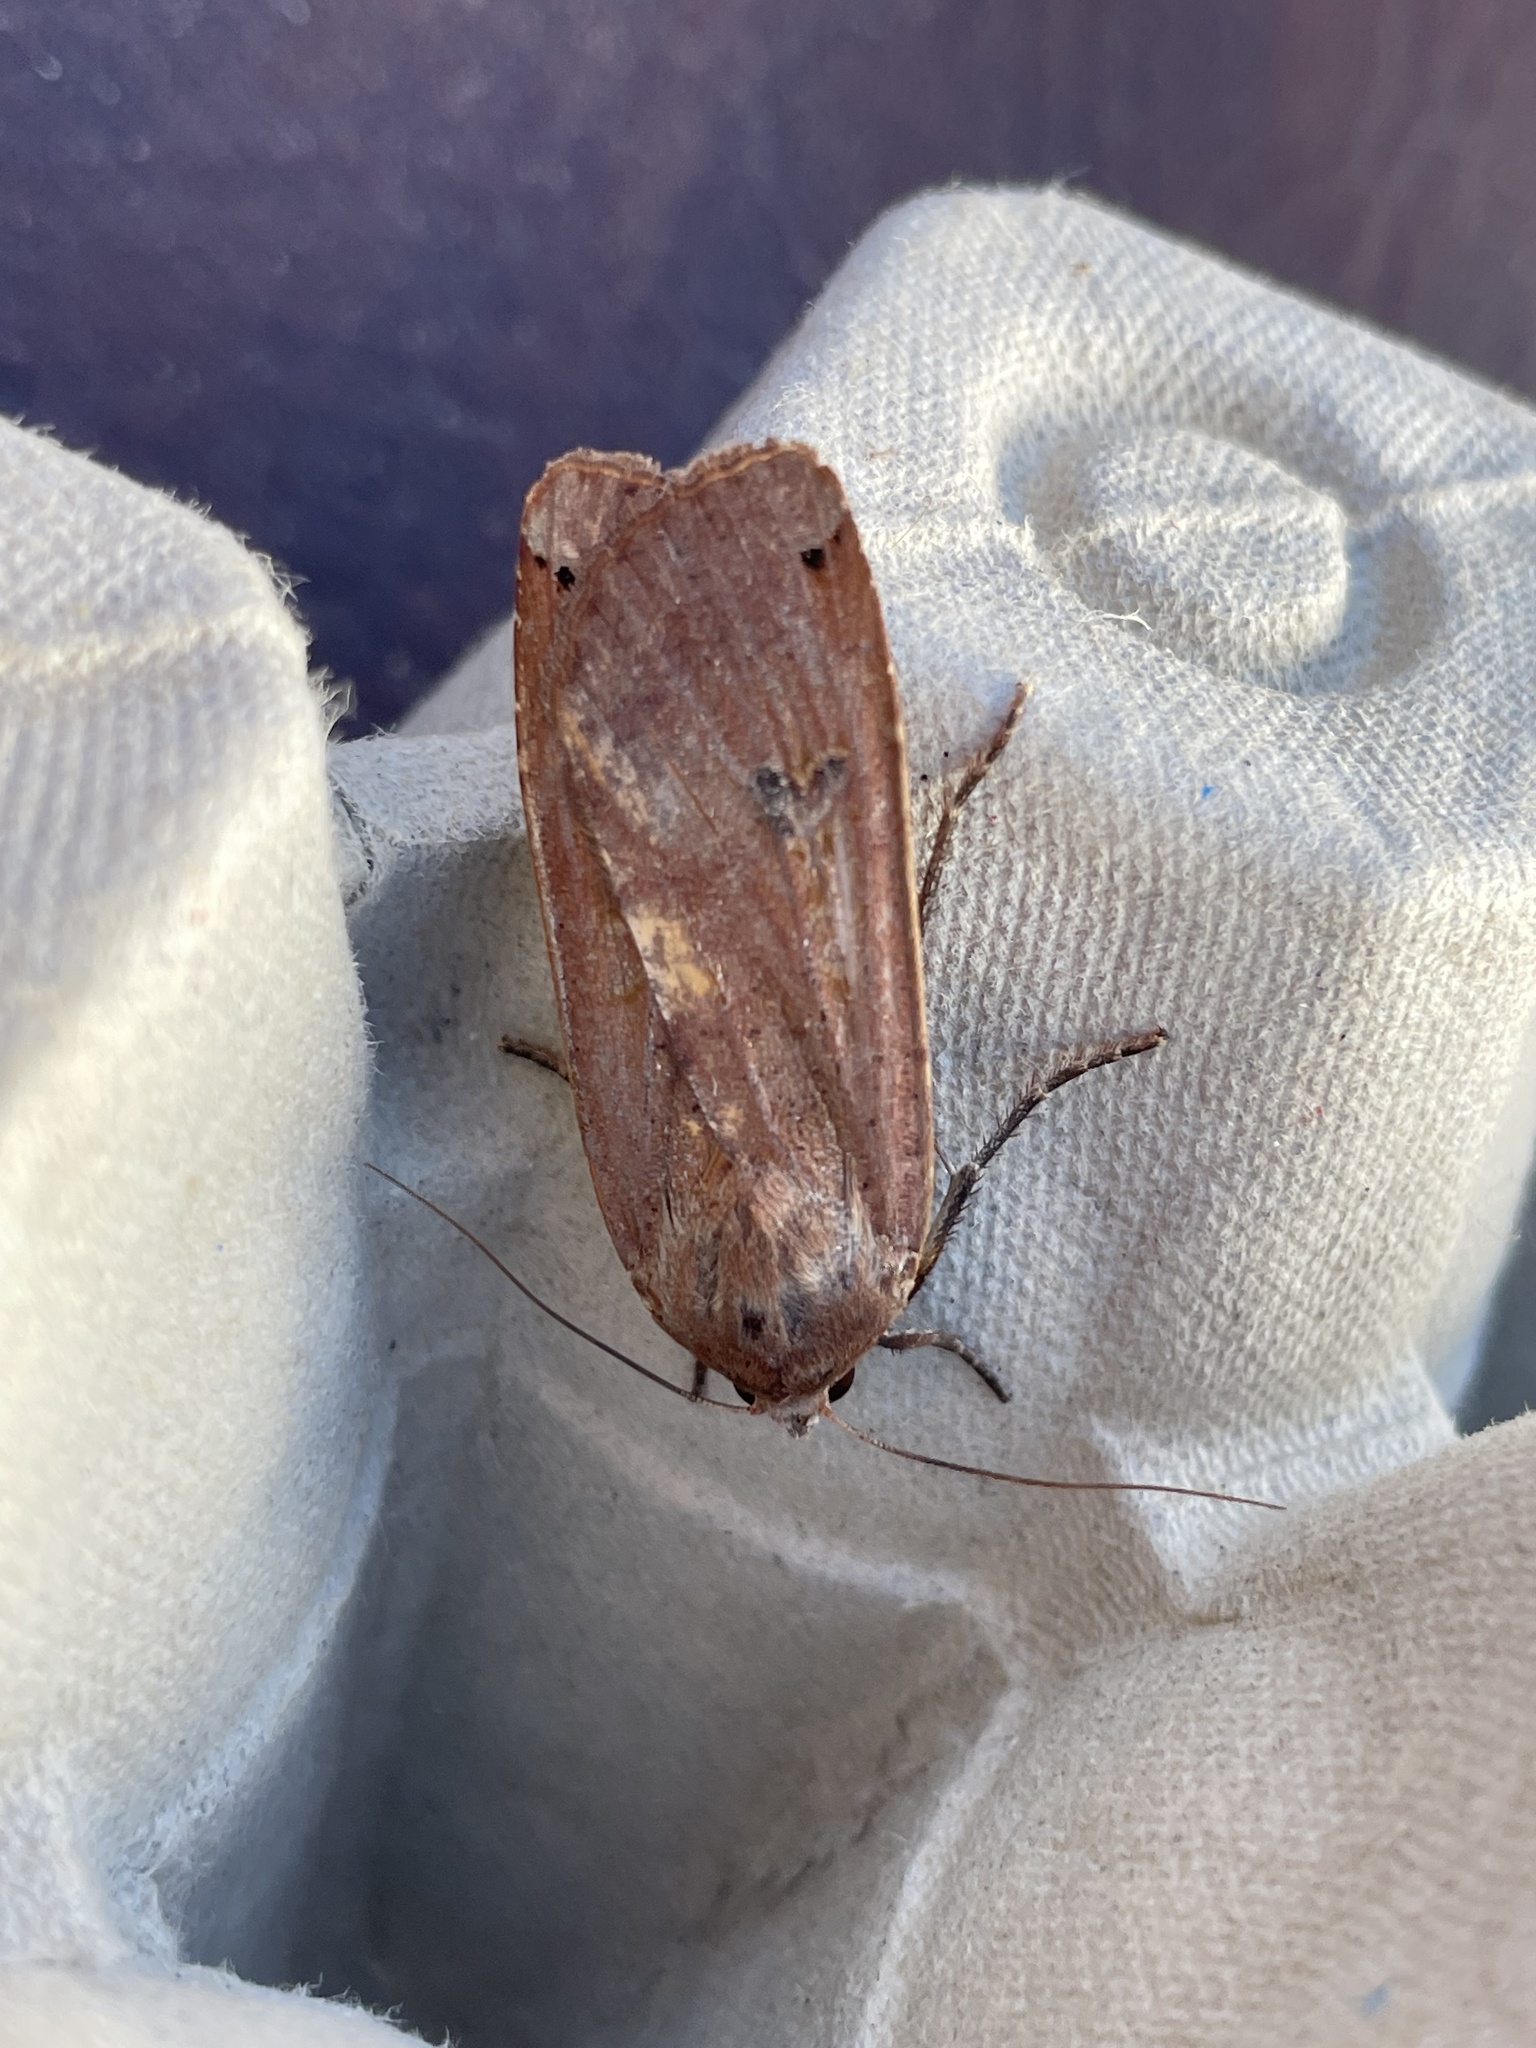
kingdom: Animalia
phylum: Arthropoda
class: Insecta
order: Lepidoptera
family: Noctuidae
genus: Noctua
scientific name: Noctua pronuba
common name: Large yellow underwing
